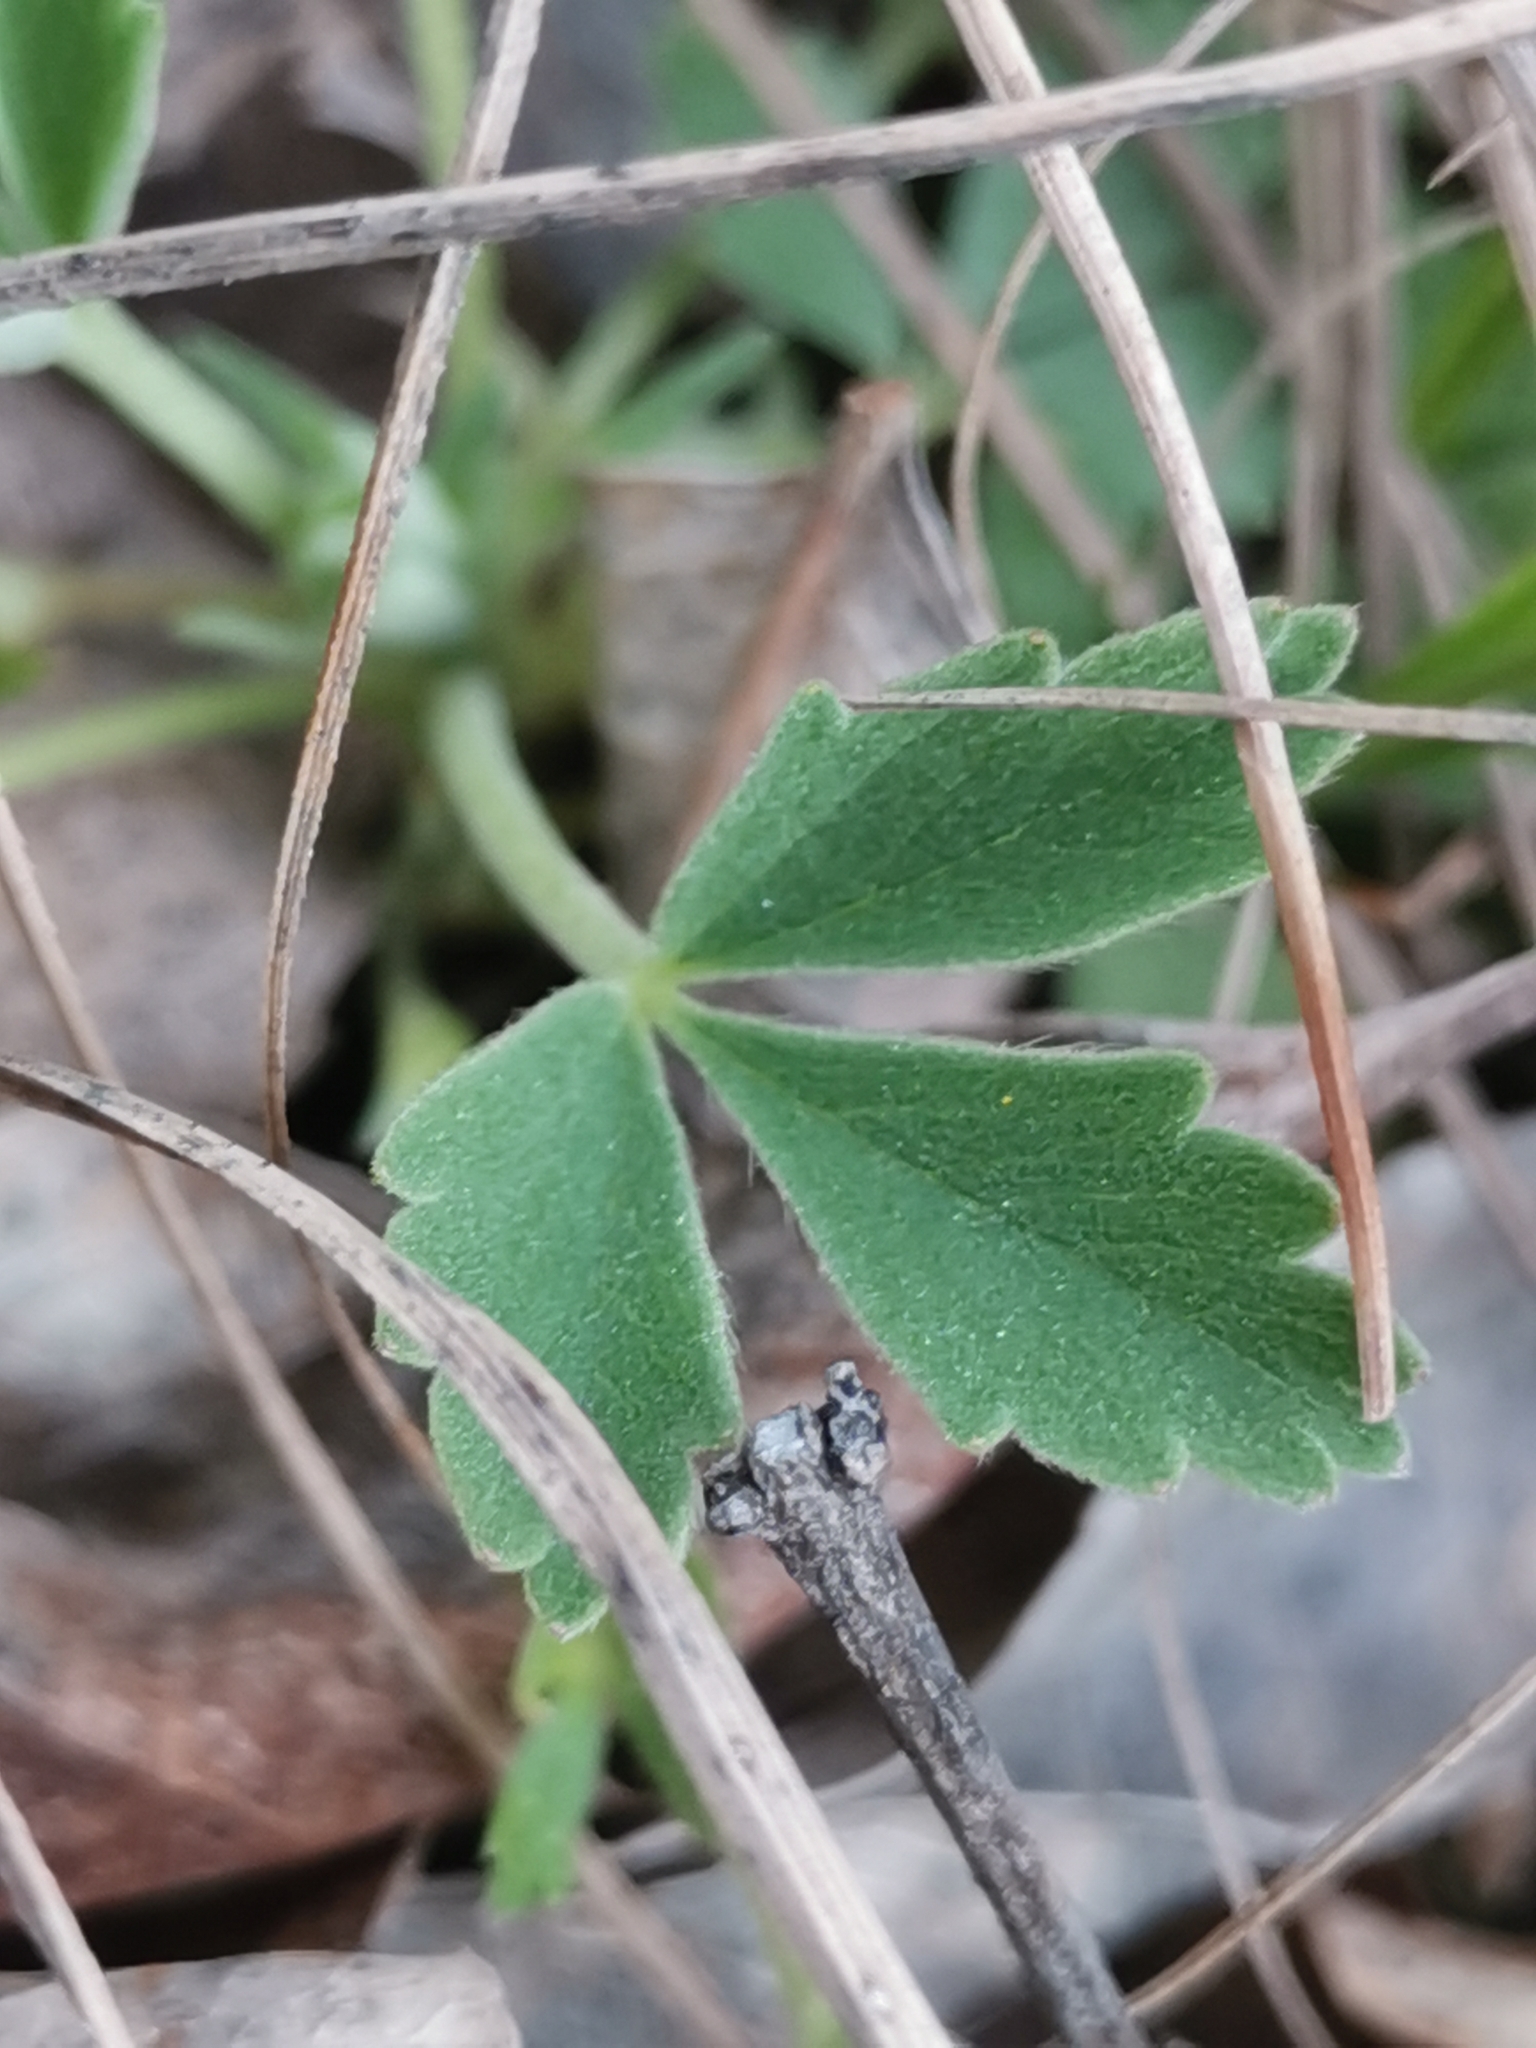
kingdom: Plantae
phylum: Tracheophyta
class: Magnoliopsida
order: Rosales
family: Rosaceae
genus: Potentilla
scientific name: Potentilla tommasiniana
